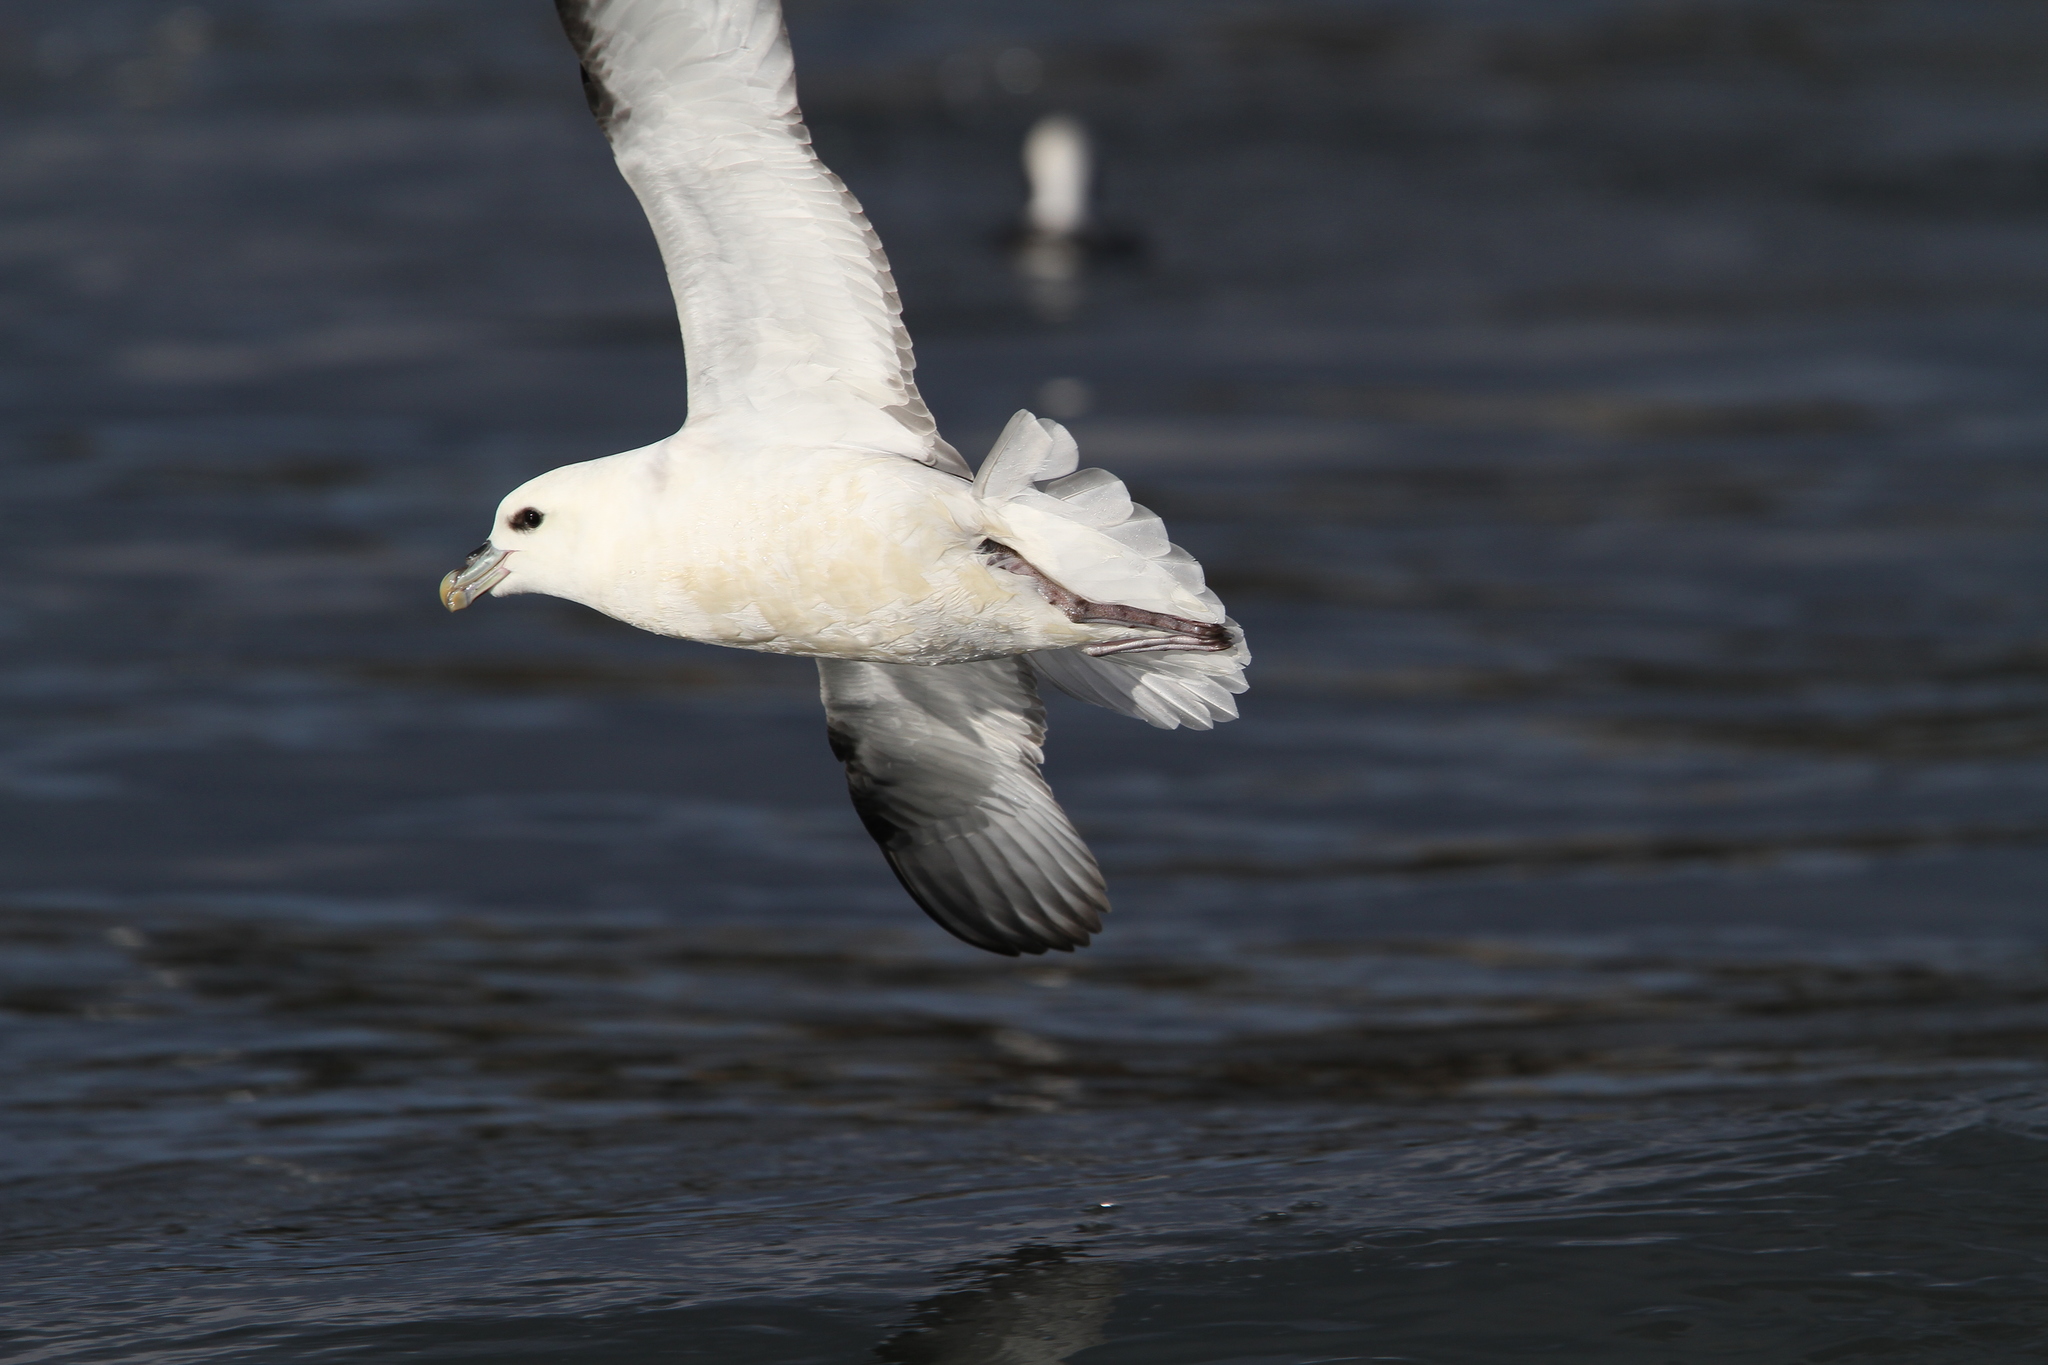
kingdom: Animalia
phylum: Chordata
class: Aves
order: Procellariiformes
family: Procellariidae
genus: Fulmarus
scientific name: Fulmarus glacialis
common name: Northern fulmar
